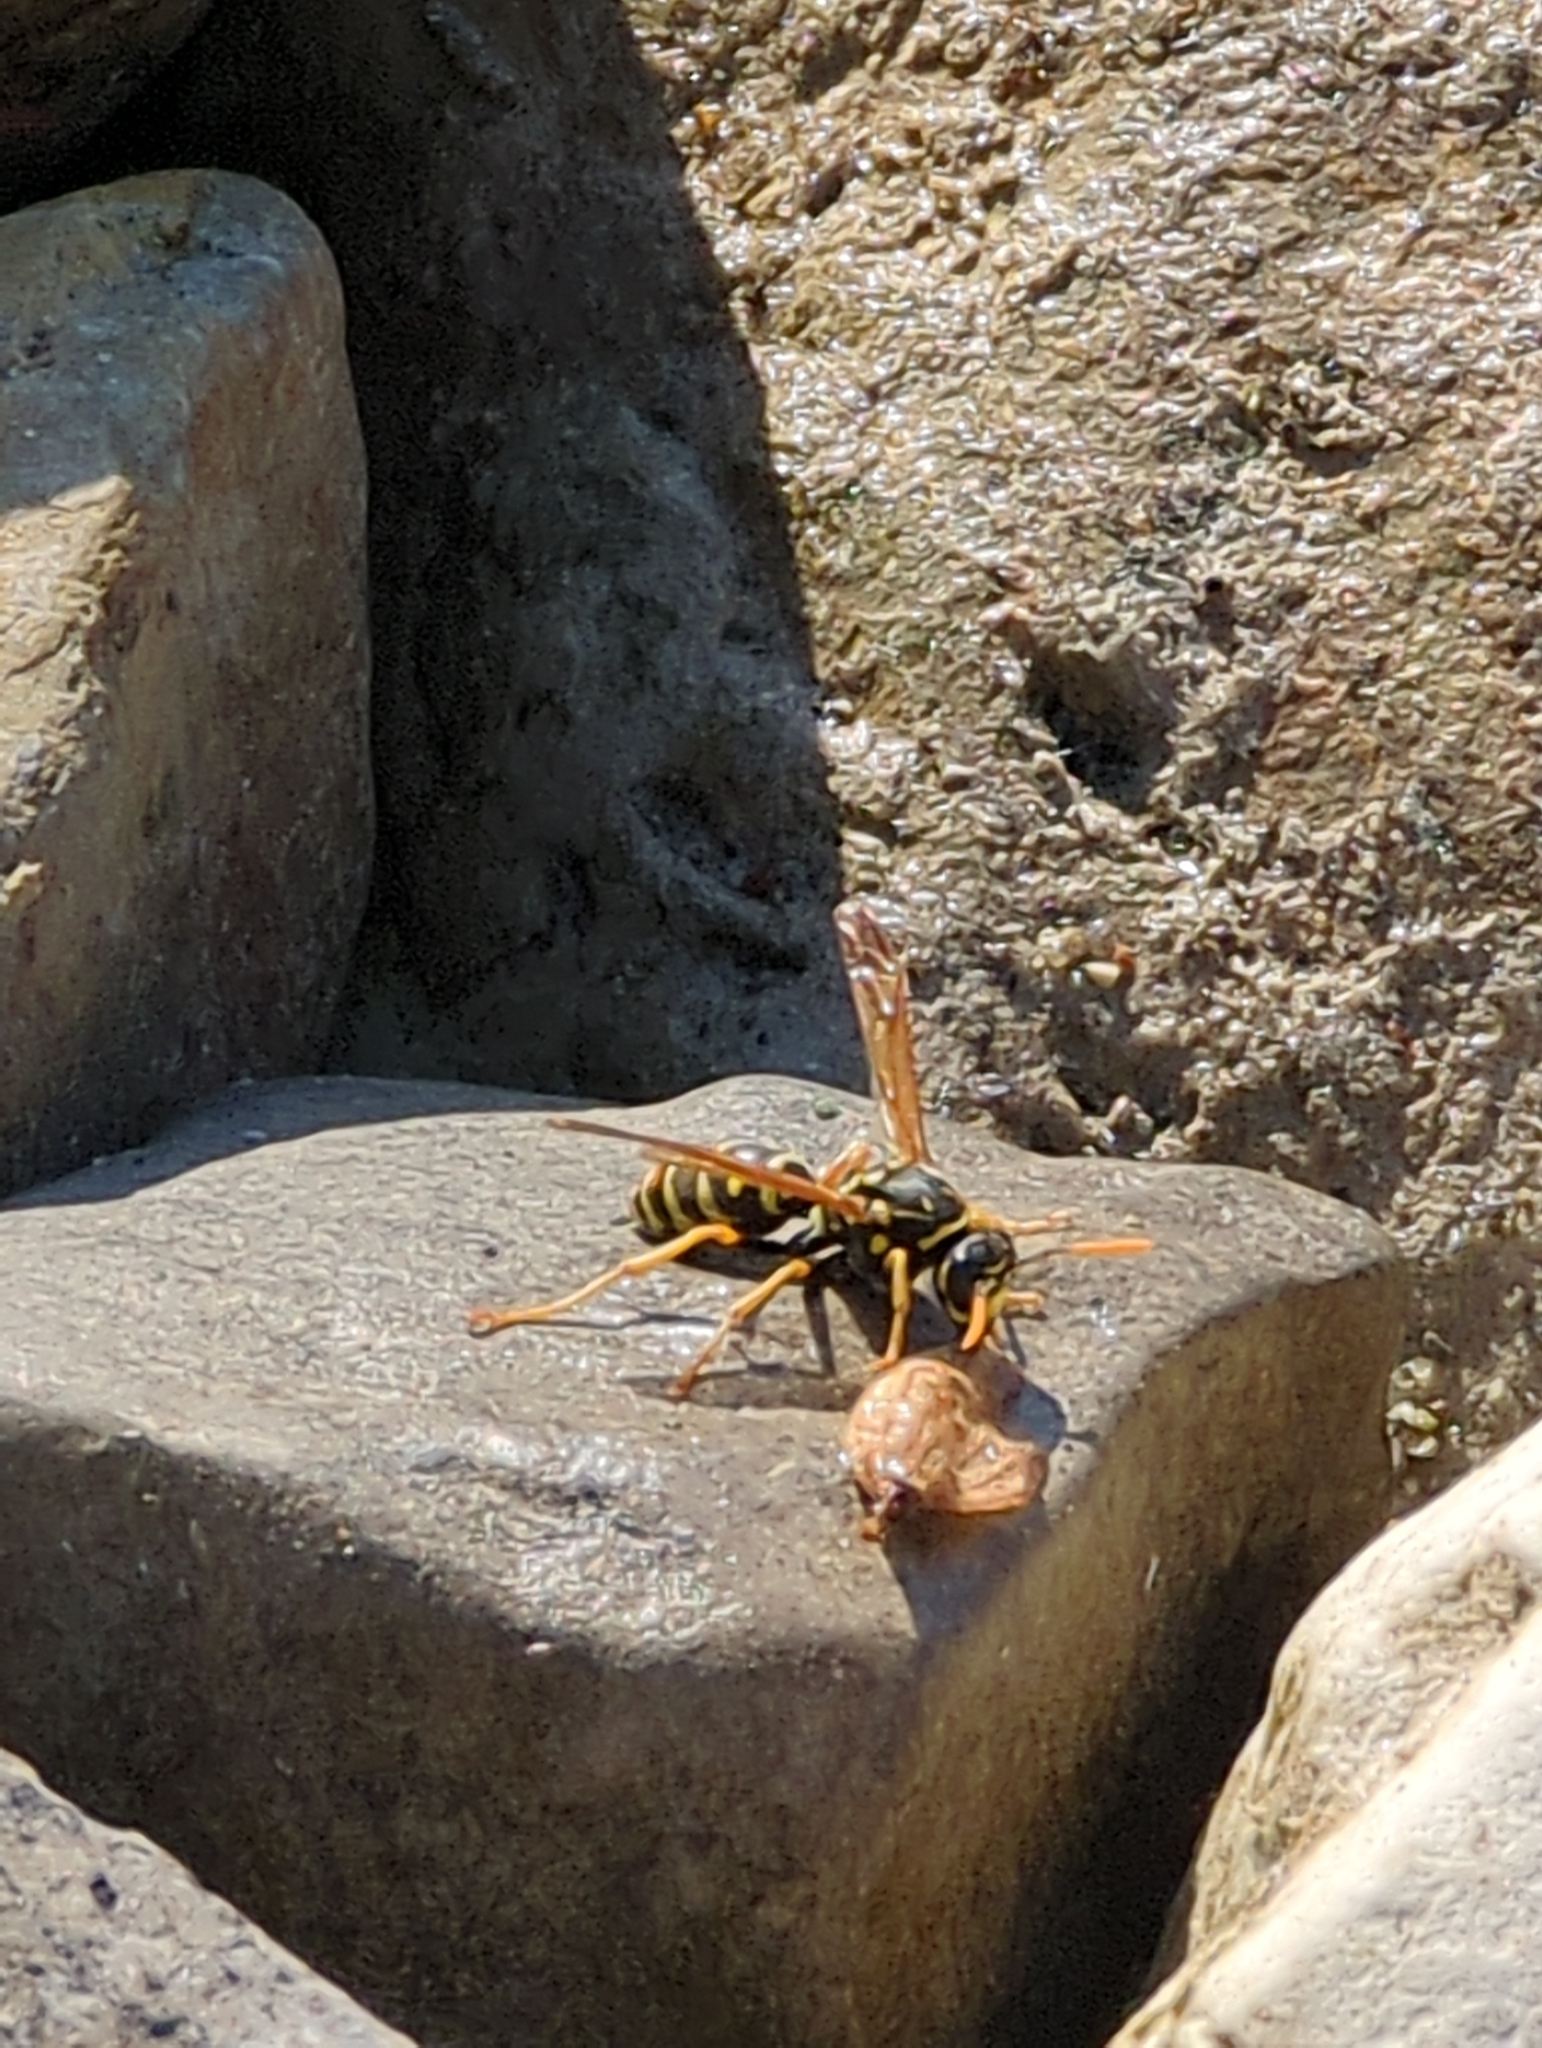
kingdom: Animalia
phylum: Arthropoda
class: Insecta
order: Hymenoptera
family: Eumenidae
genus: Polistes
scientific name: Polistes dominula
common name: Paper wasp
